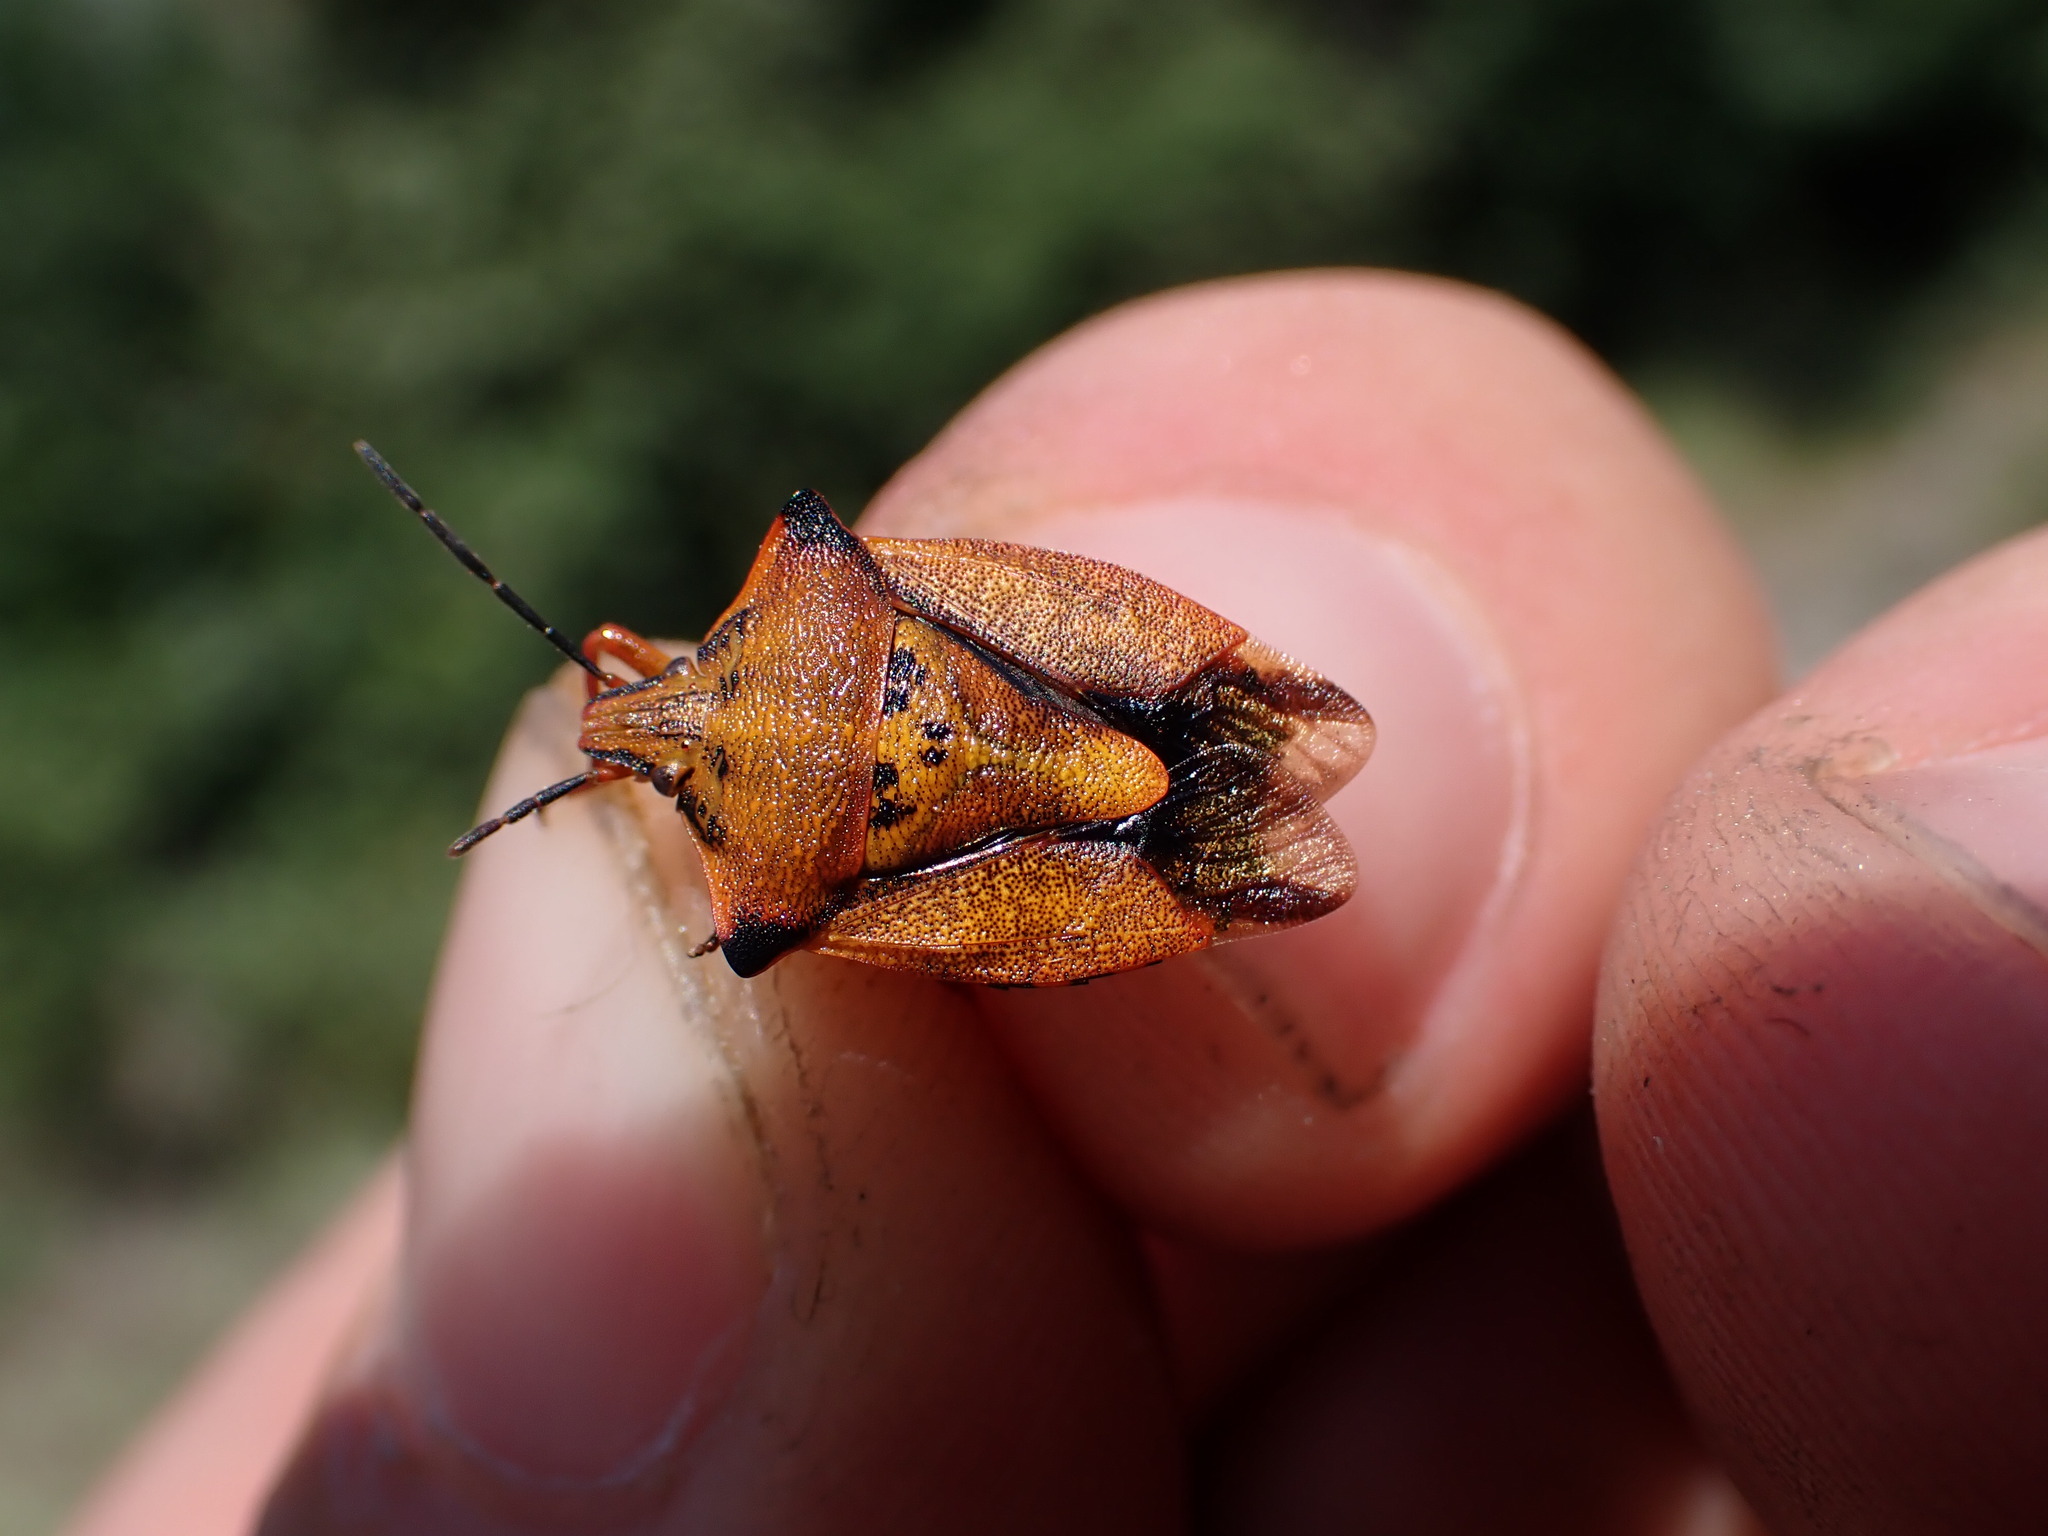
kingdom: Animalia
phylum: Arthropoda
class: Insecta
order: Hemiptera
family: Pentatomidae
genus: Carpocoris
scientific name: Carpocoris mediterraneus
